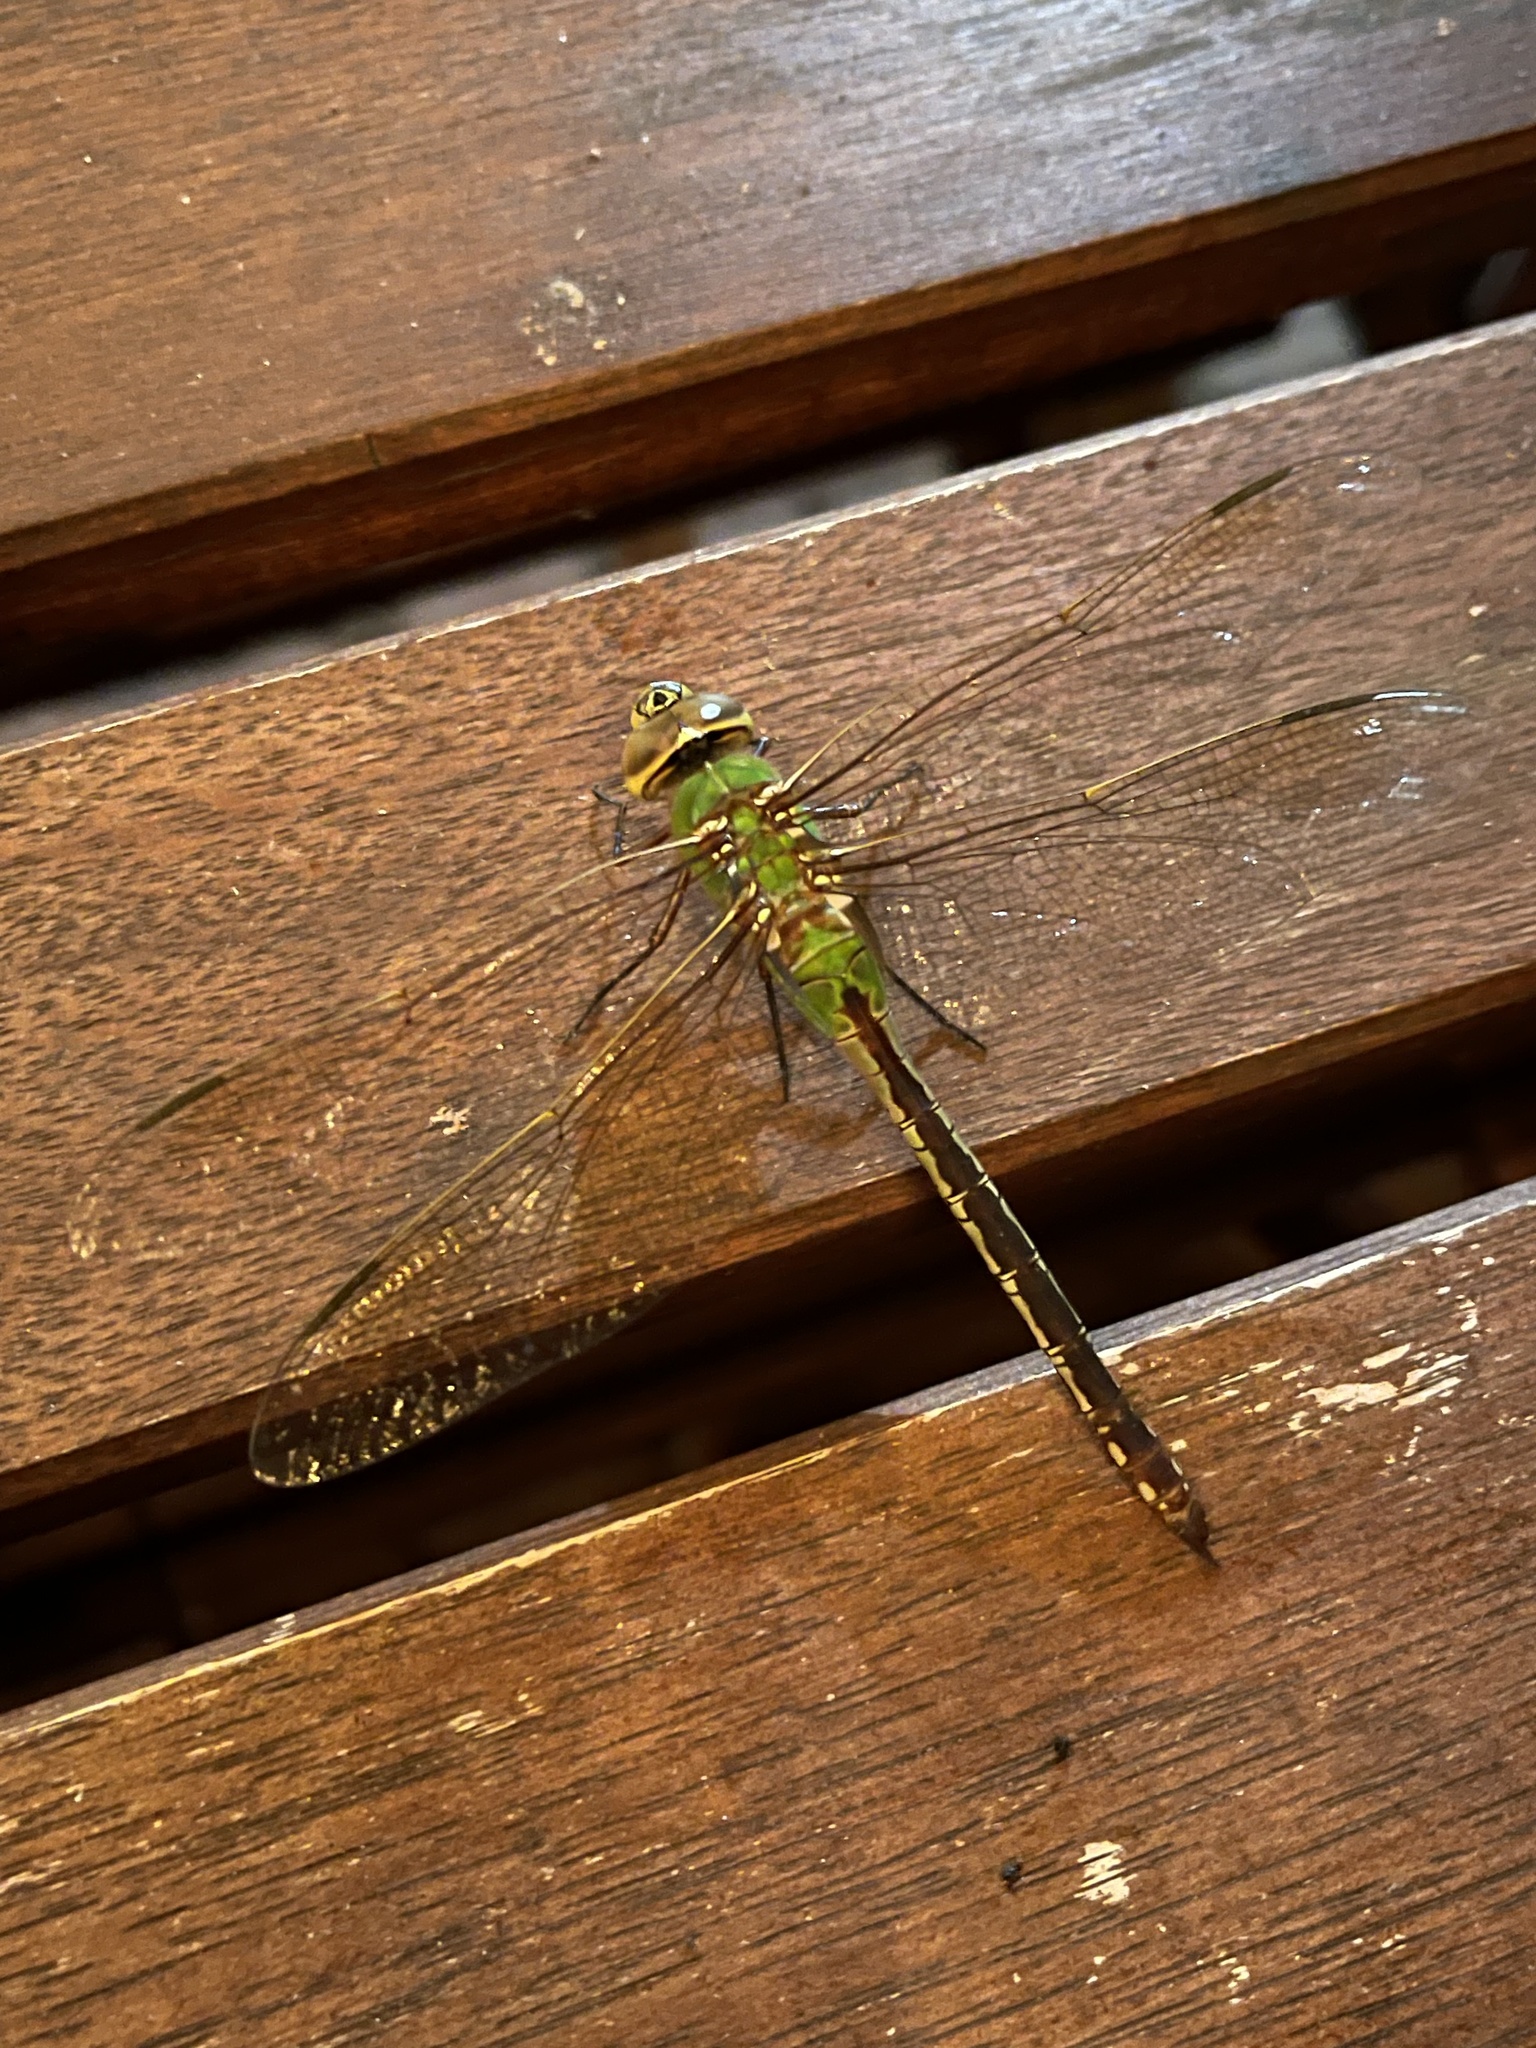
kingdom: Animalia
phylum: Arthropoda
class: Insecta
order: Odonata
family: Aeshnidae
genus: Anax
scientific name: Anax junius
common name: Common green darner
